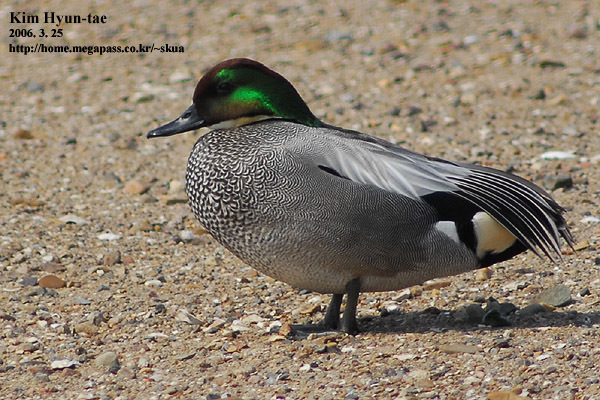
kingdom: Animalia
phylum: Chordata
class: Aves
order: Anseriformes
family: Anatidae
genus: Mareca
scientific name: Mareca falcata
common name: Falcated duck
